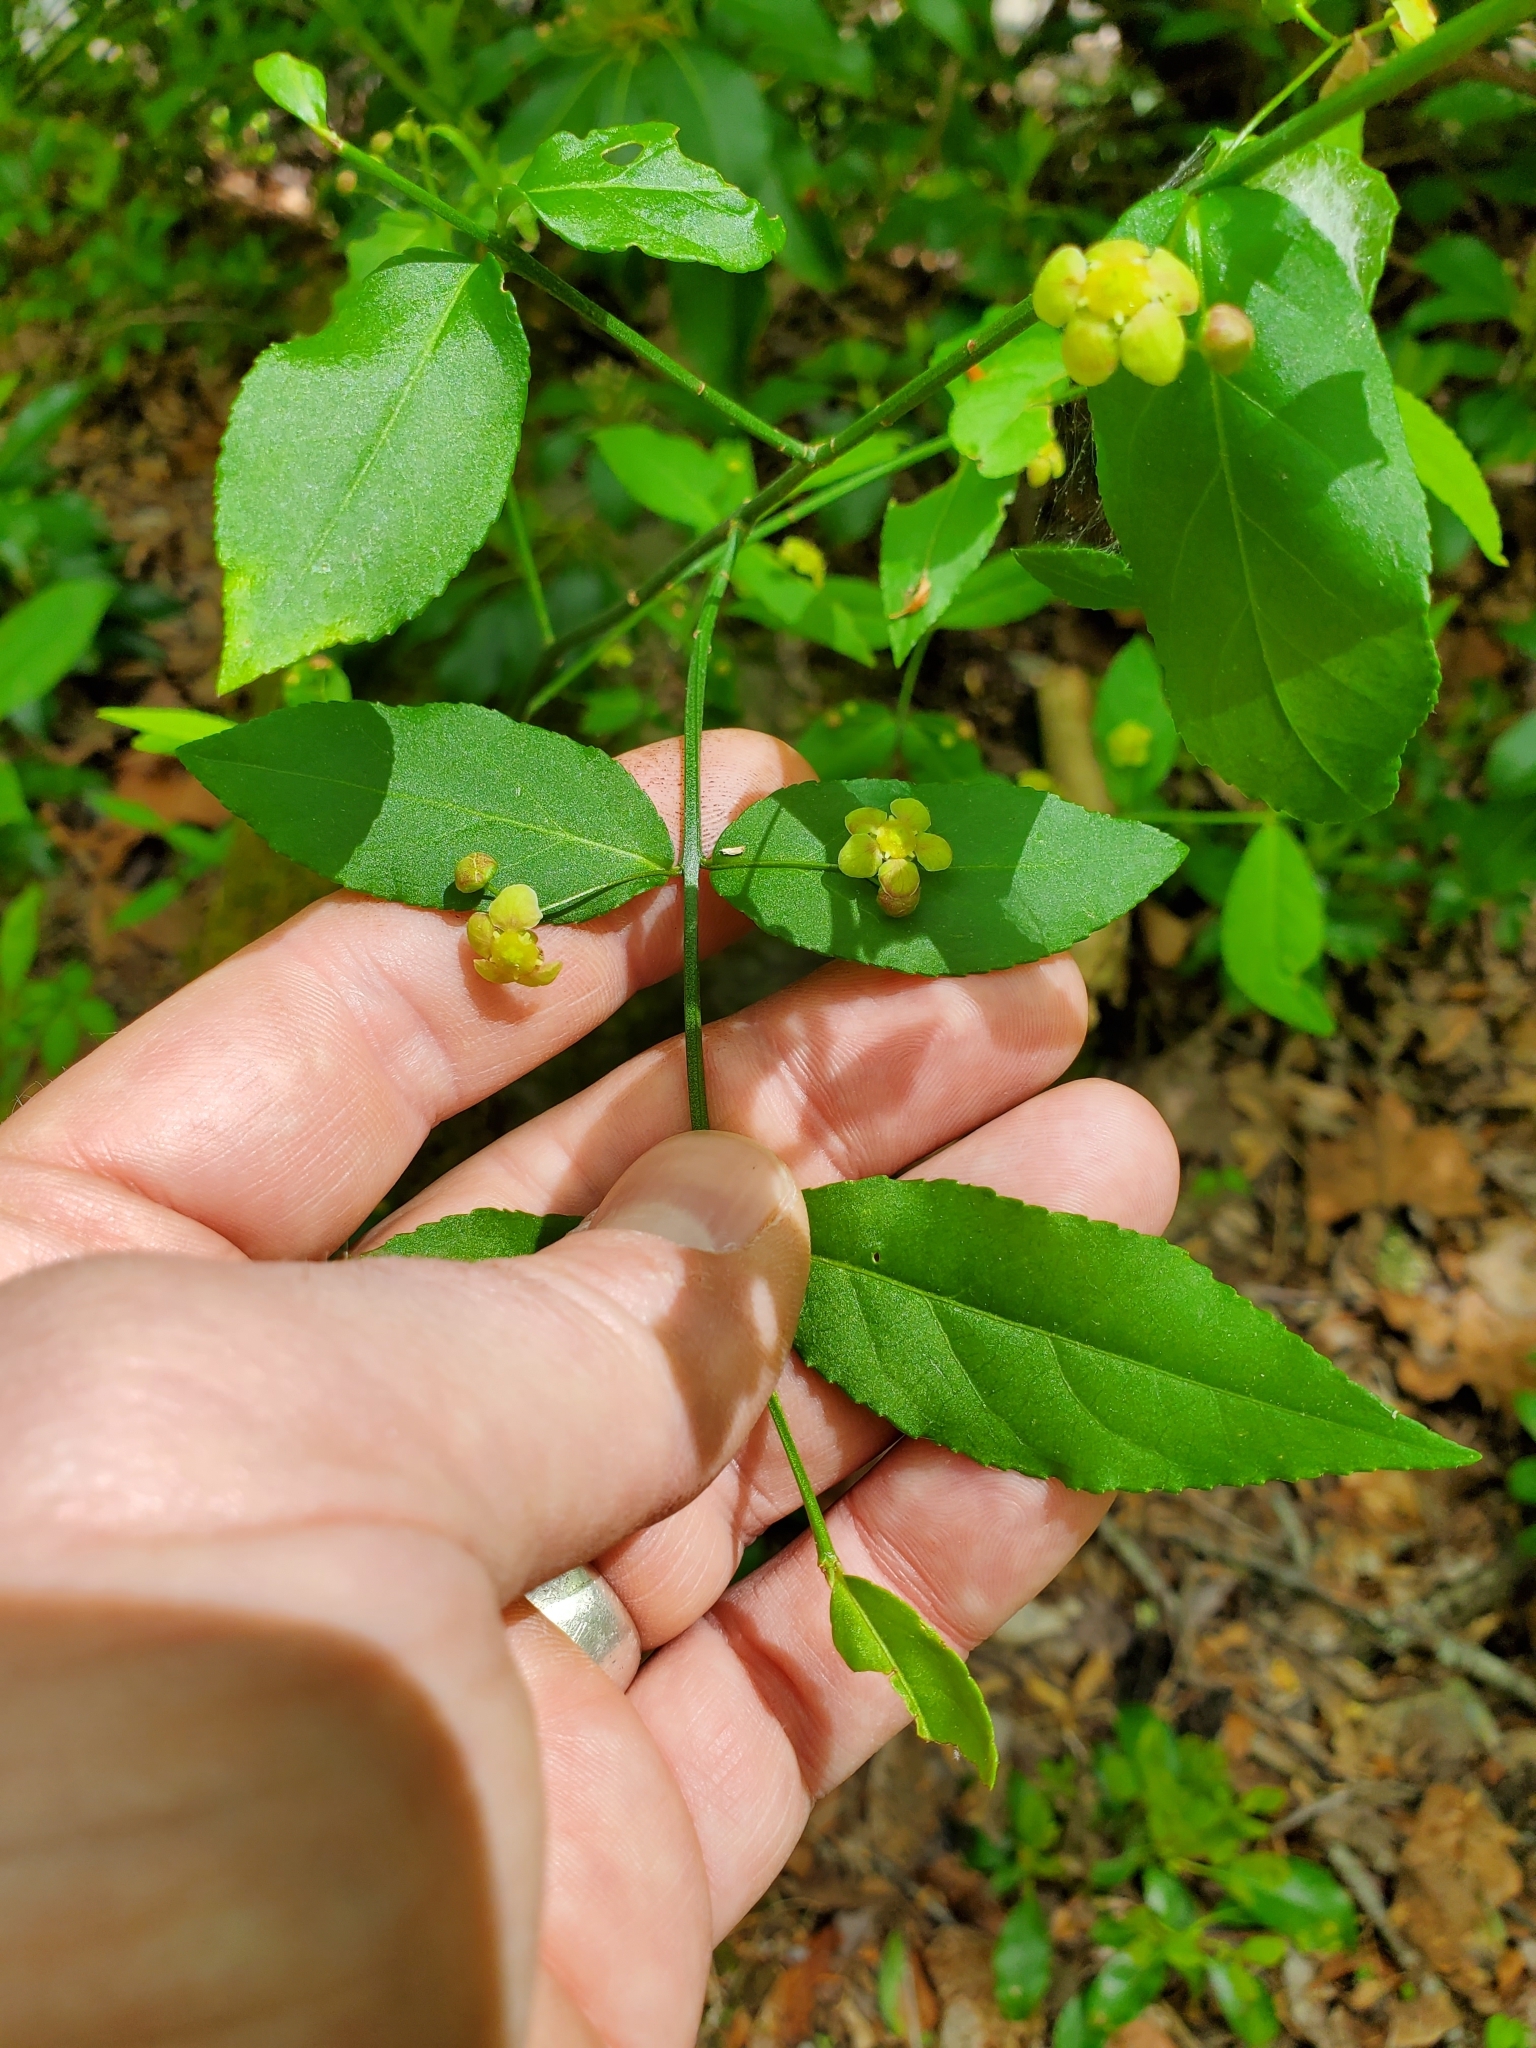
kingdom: Plantae
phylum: Tracheophyta
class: Magnoliopsida
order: Celastrales
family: Celastraceae
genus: Euonymus
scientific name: Euonymus americanus
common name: Bursting-heart
